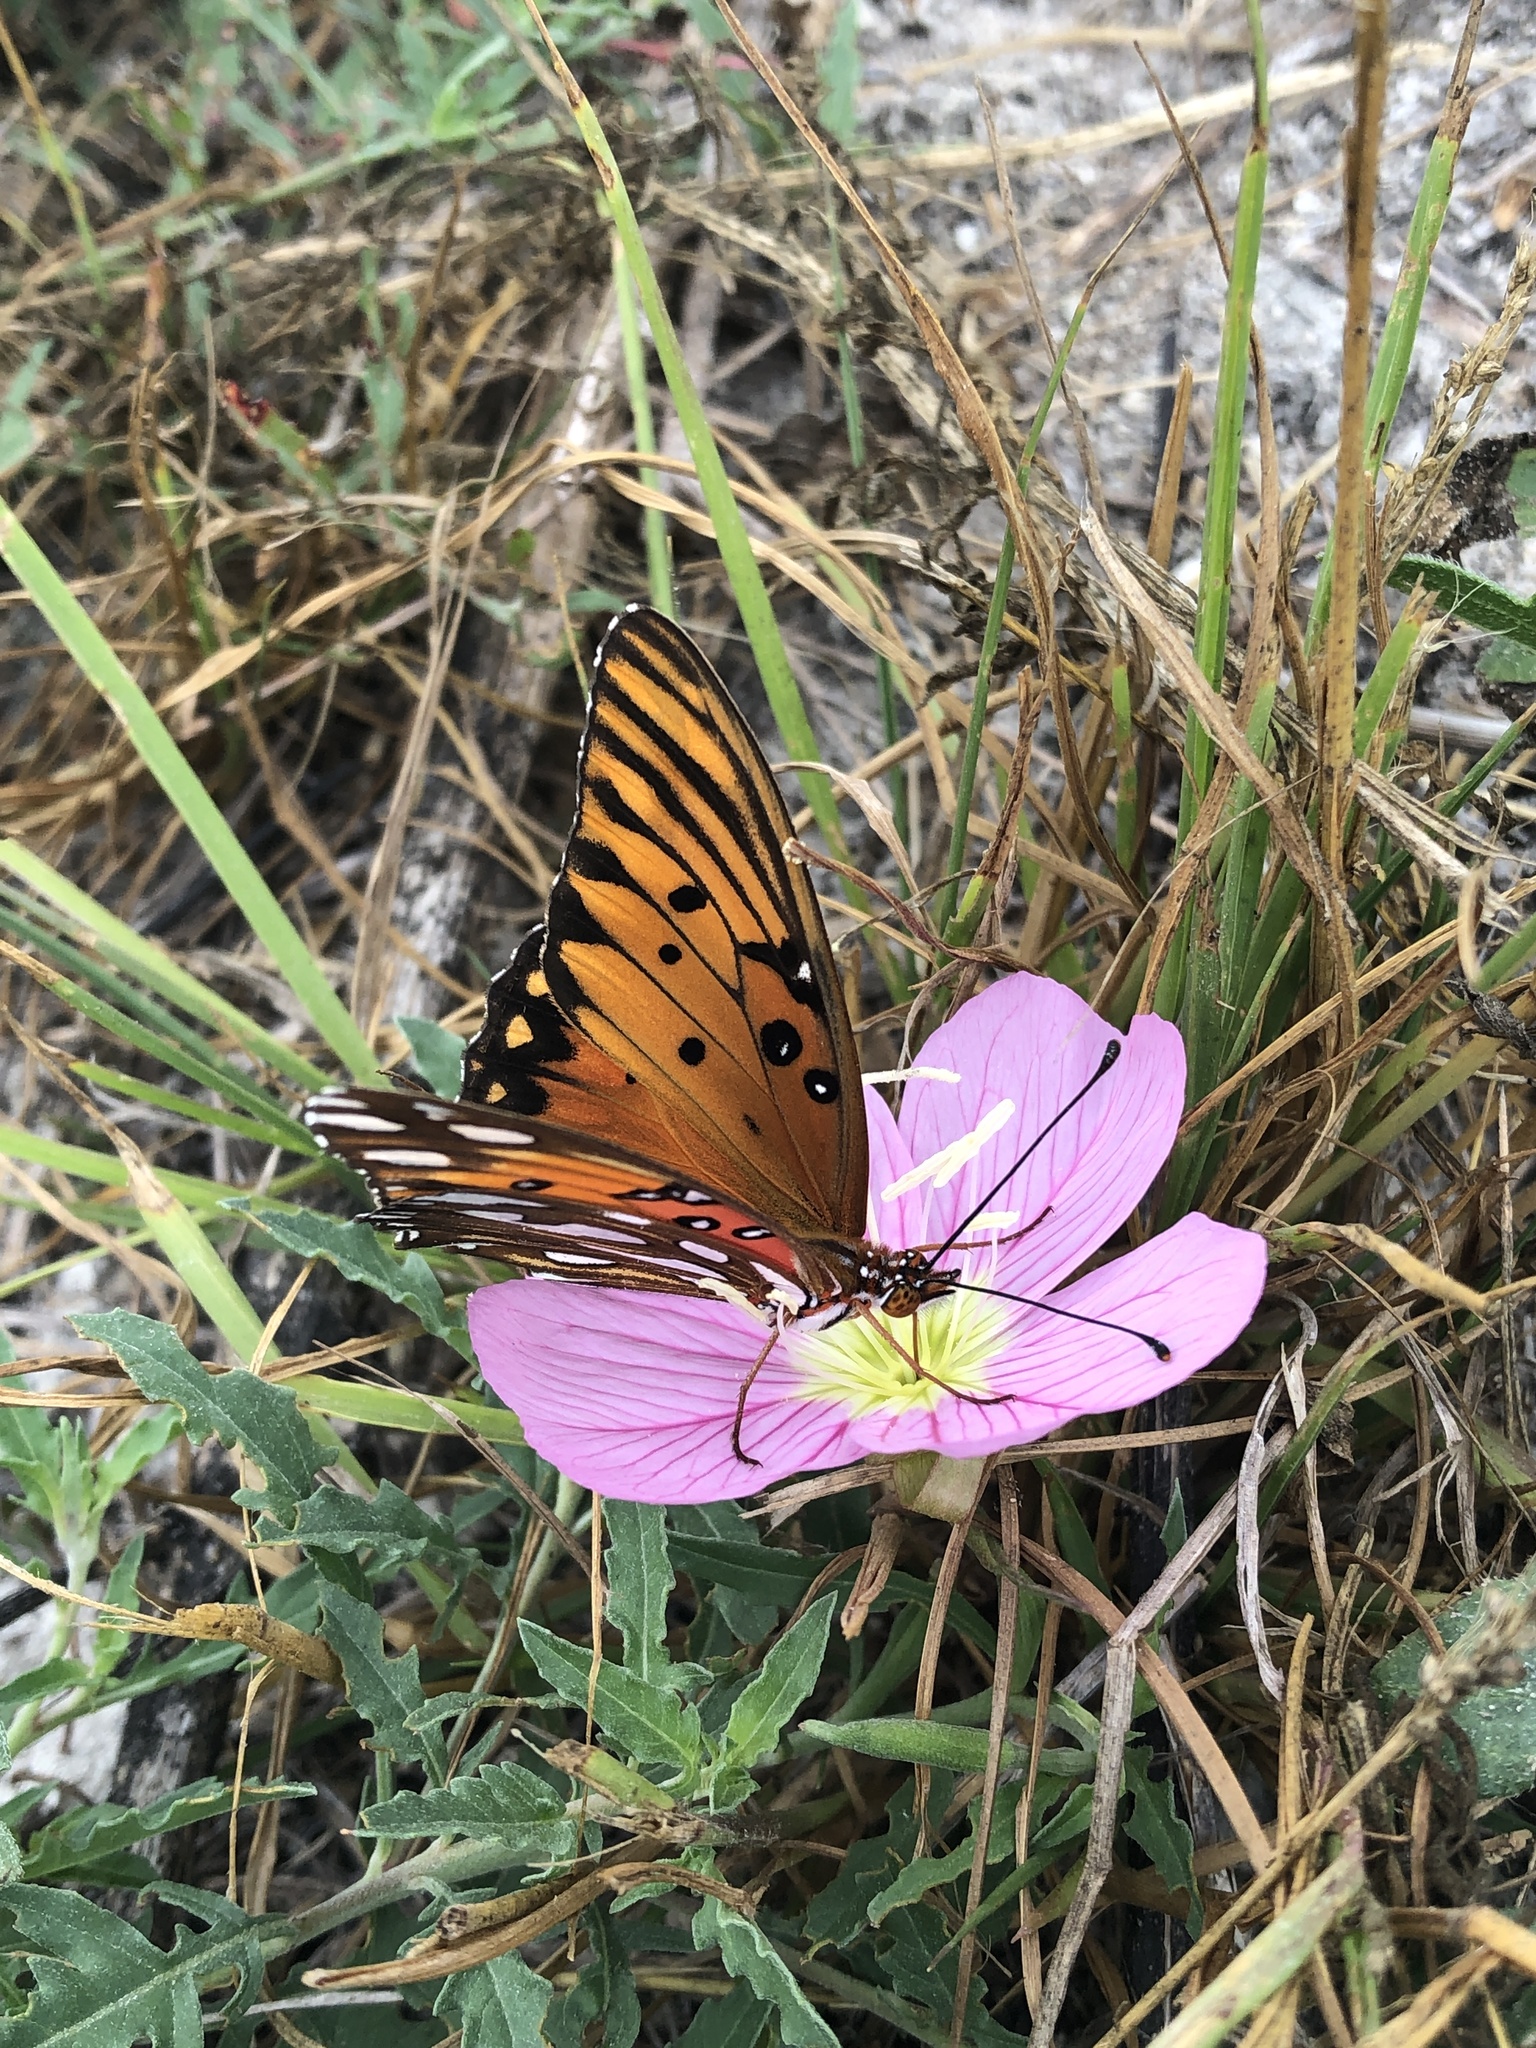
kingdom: Animalia
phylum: Arthropoda
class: Insecta
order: Lepidoptera
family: Nymphalidae
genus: Dione
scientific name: Dione vanillae
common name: Gulf fritillary
